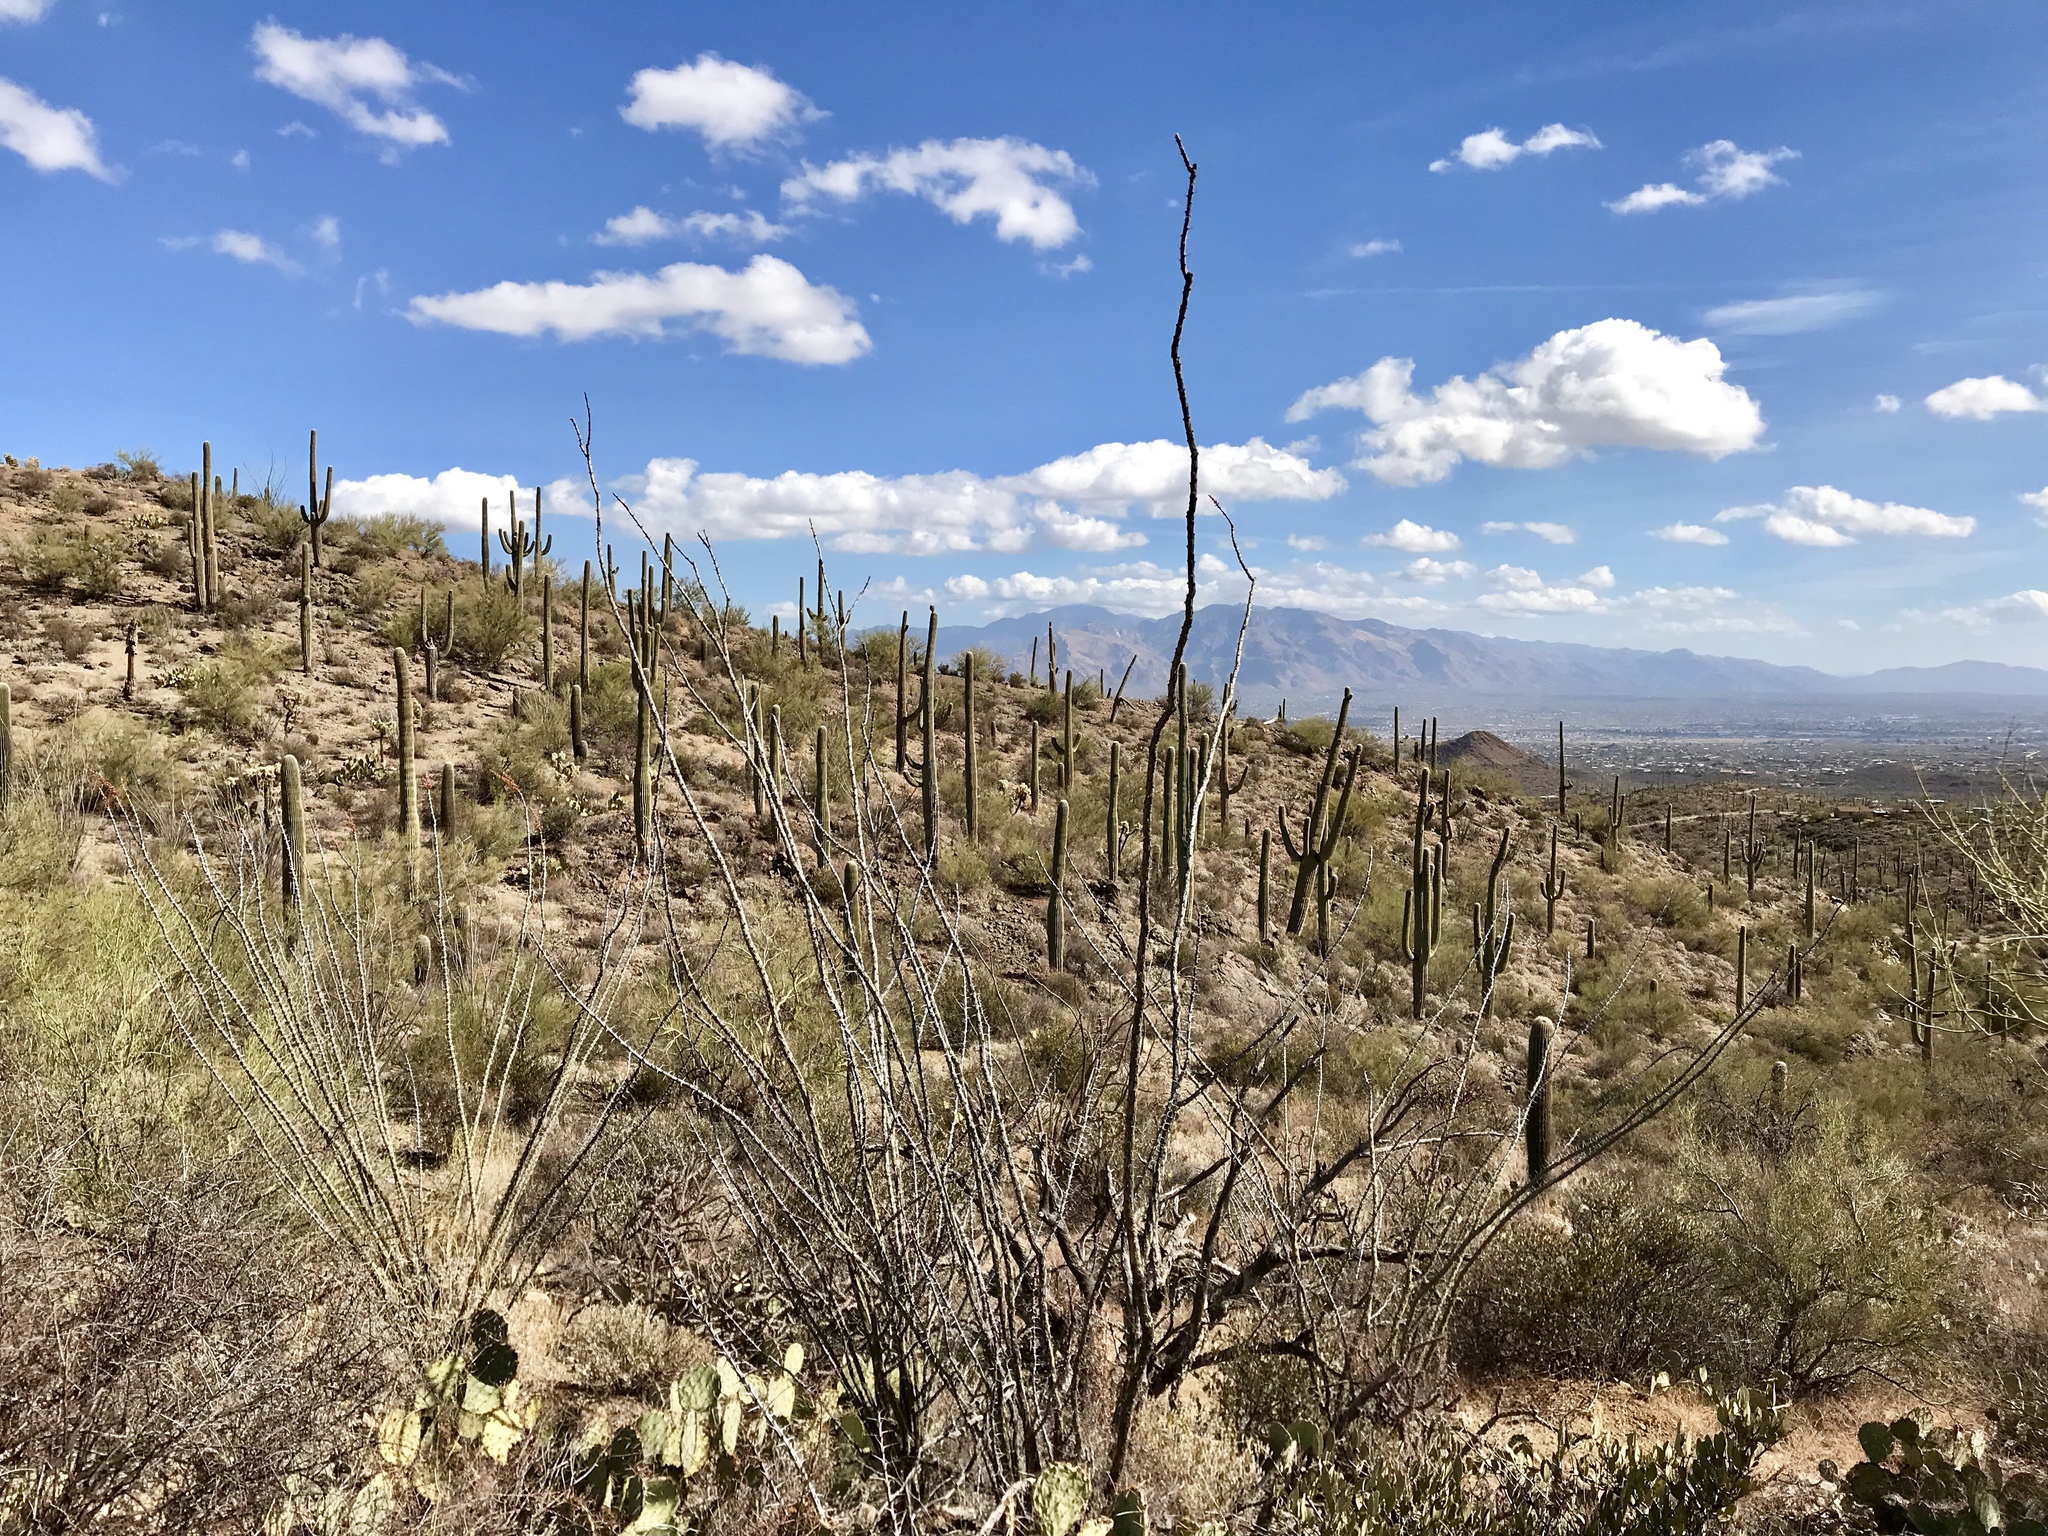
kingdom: Plantae
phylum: Tracheophyta
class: Magnoliopsida
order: Ericales
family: Fouquieriaceae
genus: Fouquieria
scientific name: Fouquieria splendens
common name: Vine-cactus
